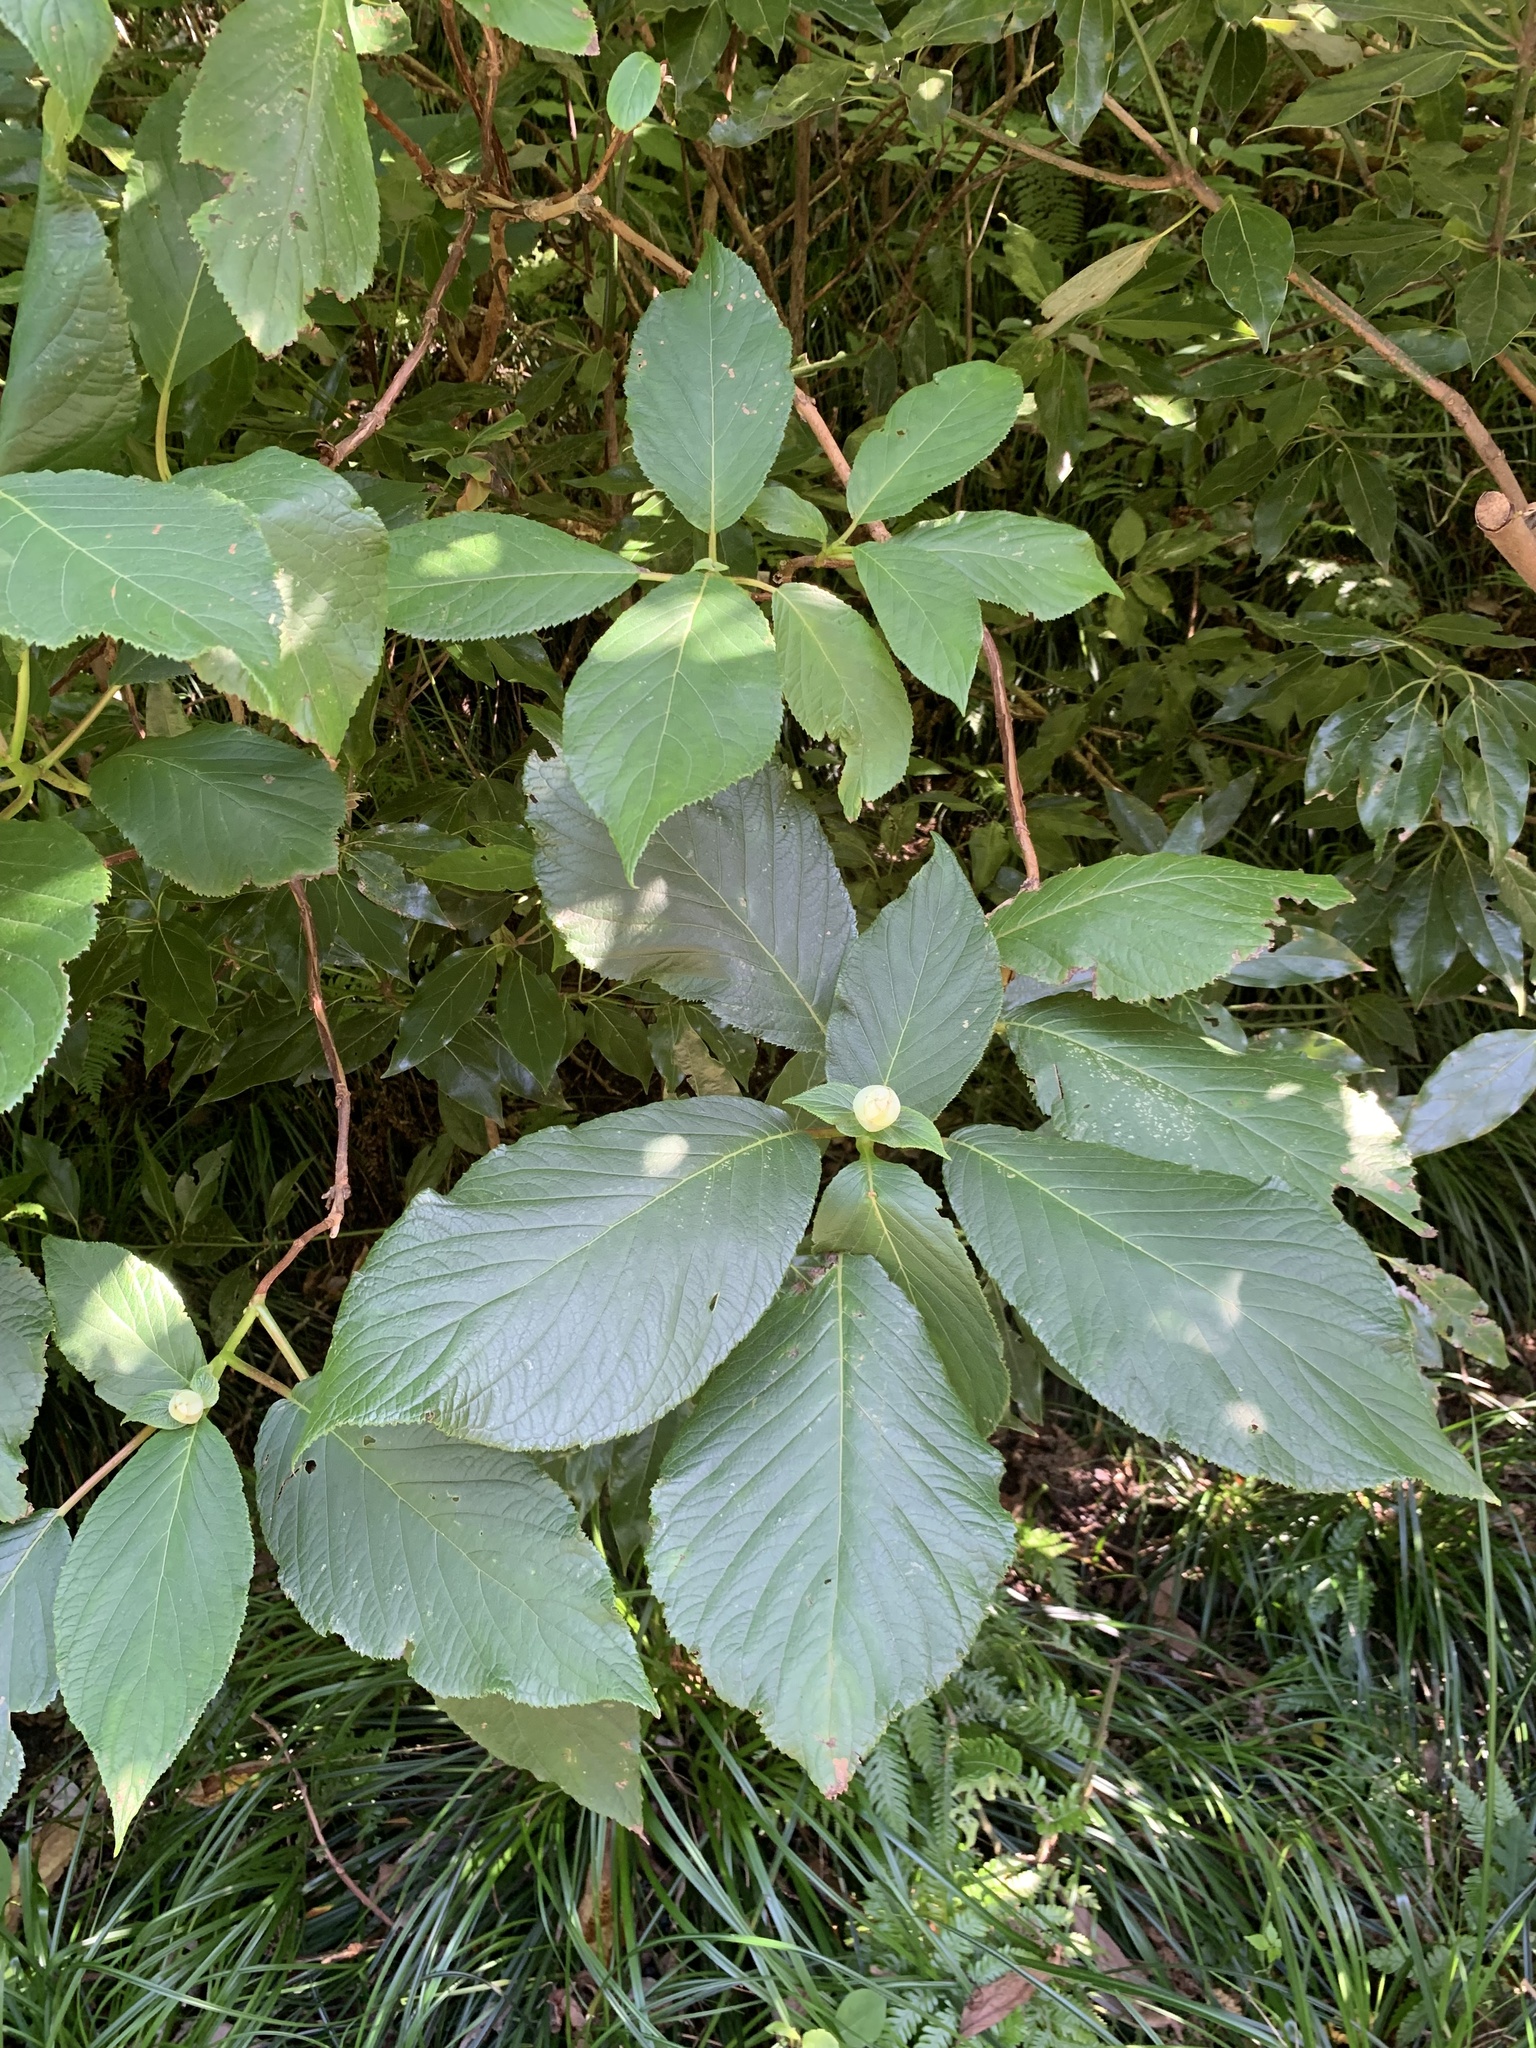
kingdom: Plantae
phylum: Tracheophyta
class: Magnoliopsida
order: Cornales
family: Hydrangeaceae
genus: Hydrangea
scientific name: Hydrangea involucrata
